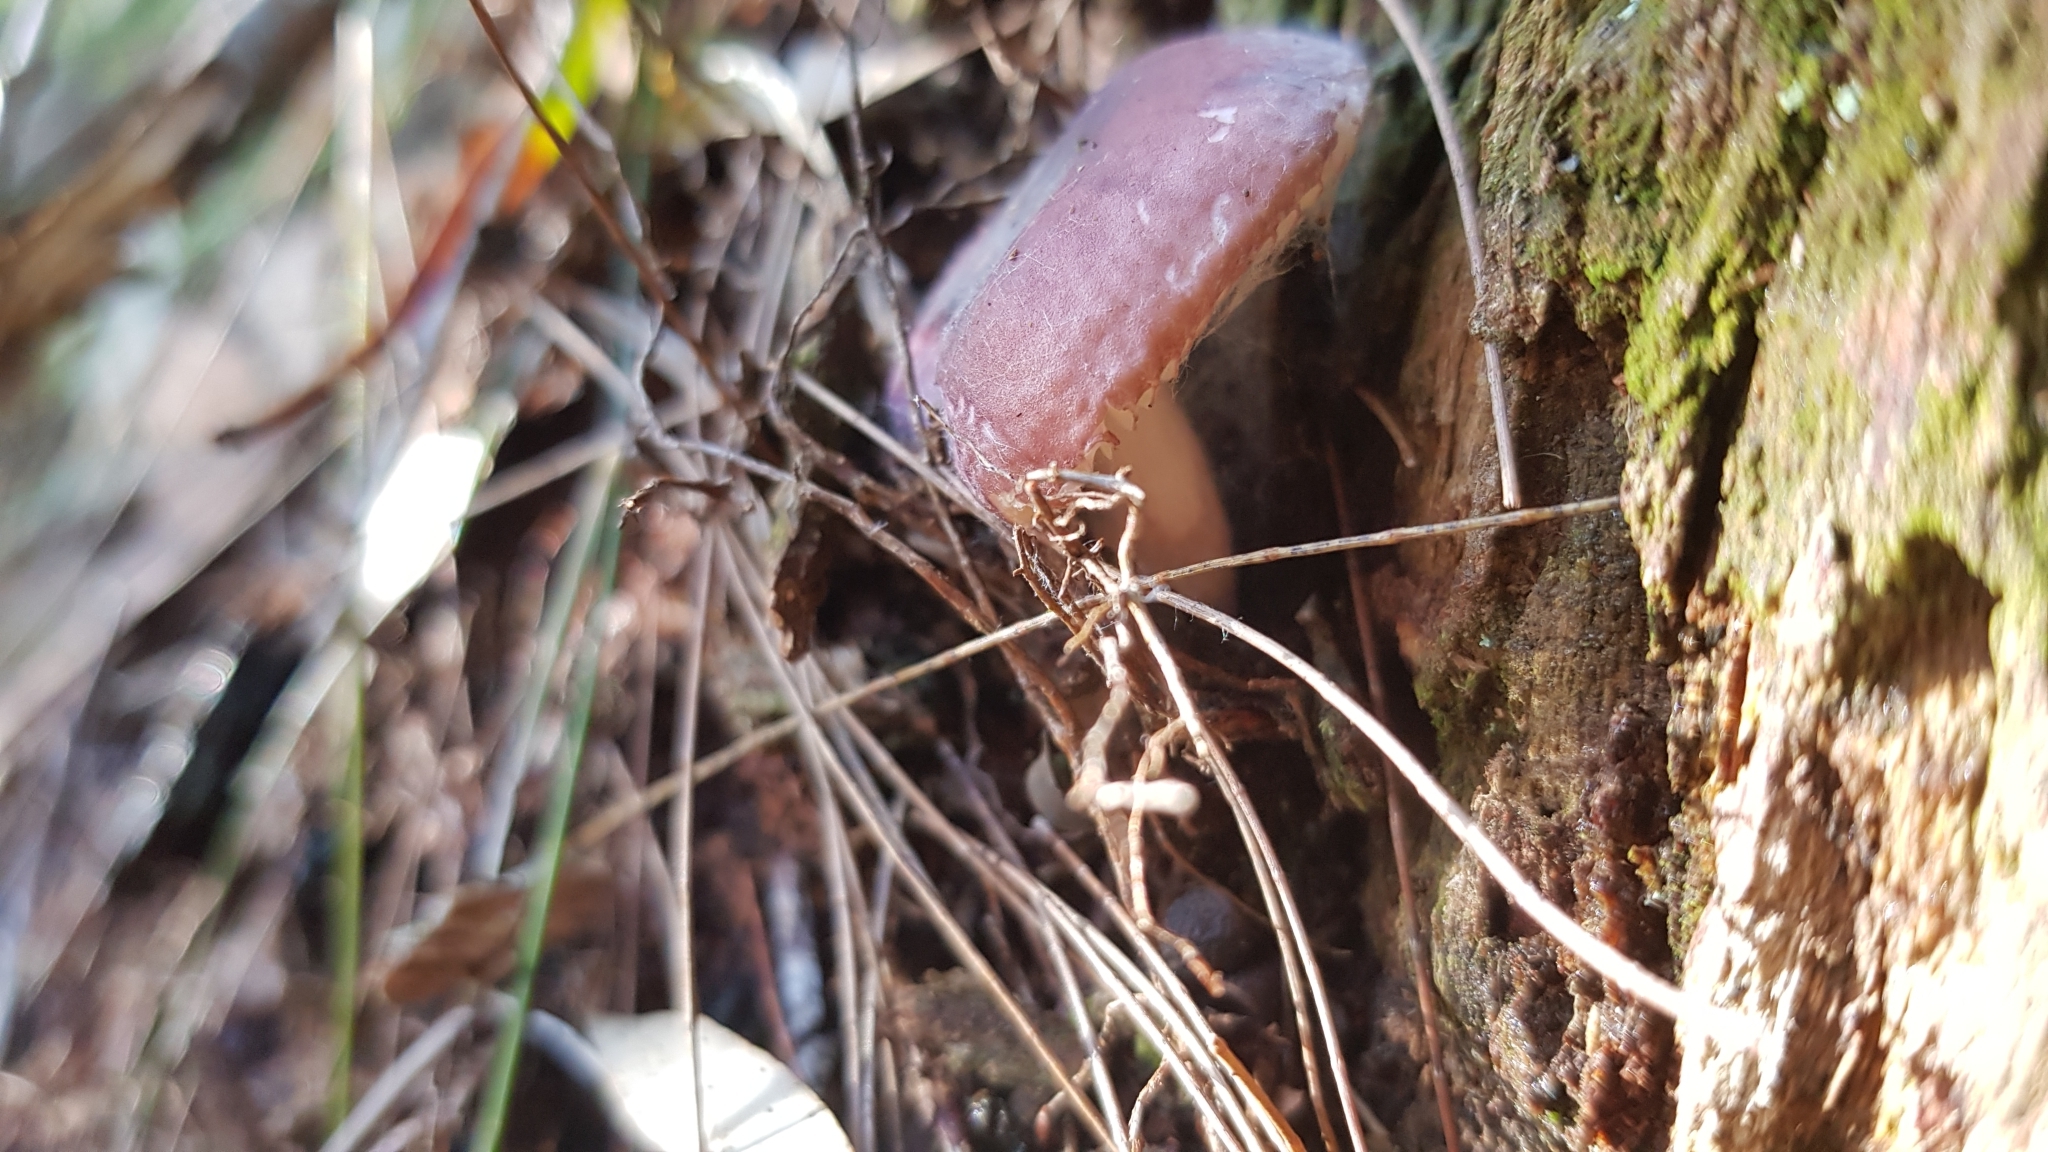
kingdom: Fungi
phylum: Basidiomycota
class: Agaricomycetes
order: Russulales
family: Russulaceae
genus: Russula
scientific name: Russula lenkunya
